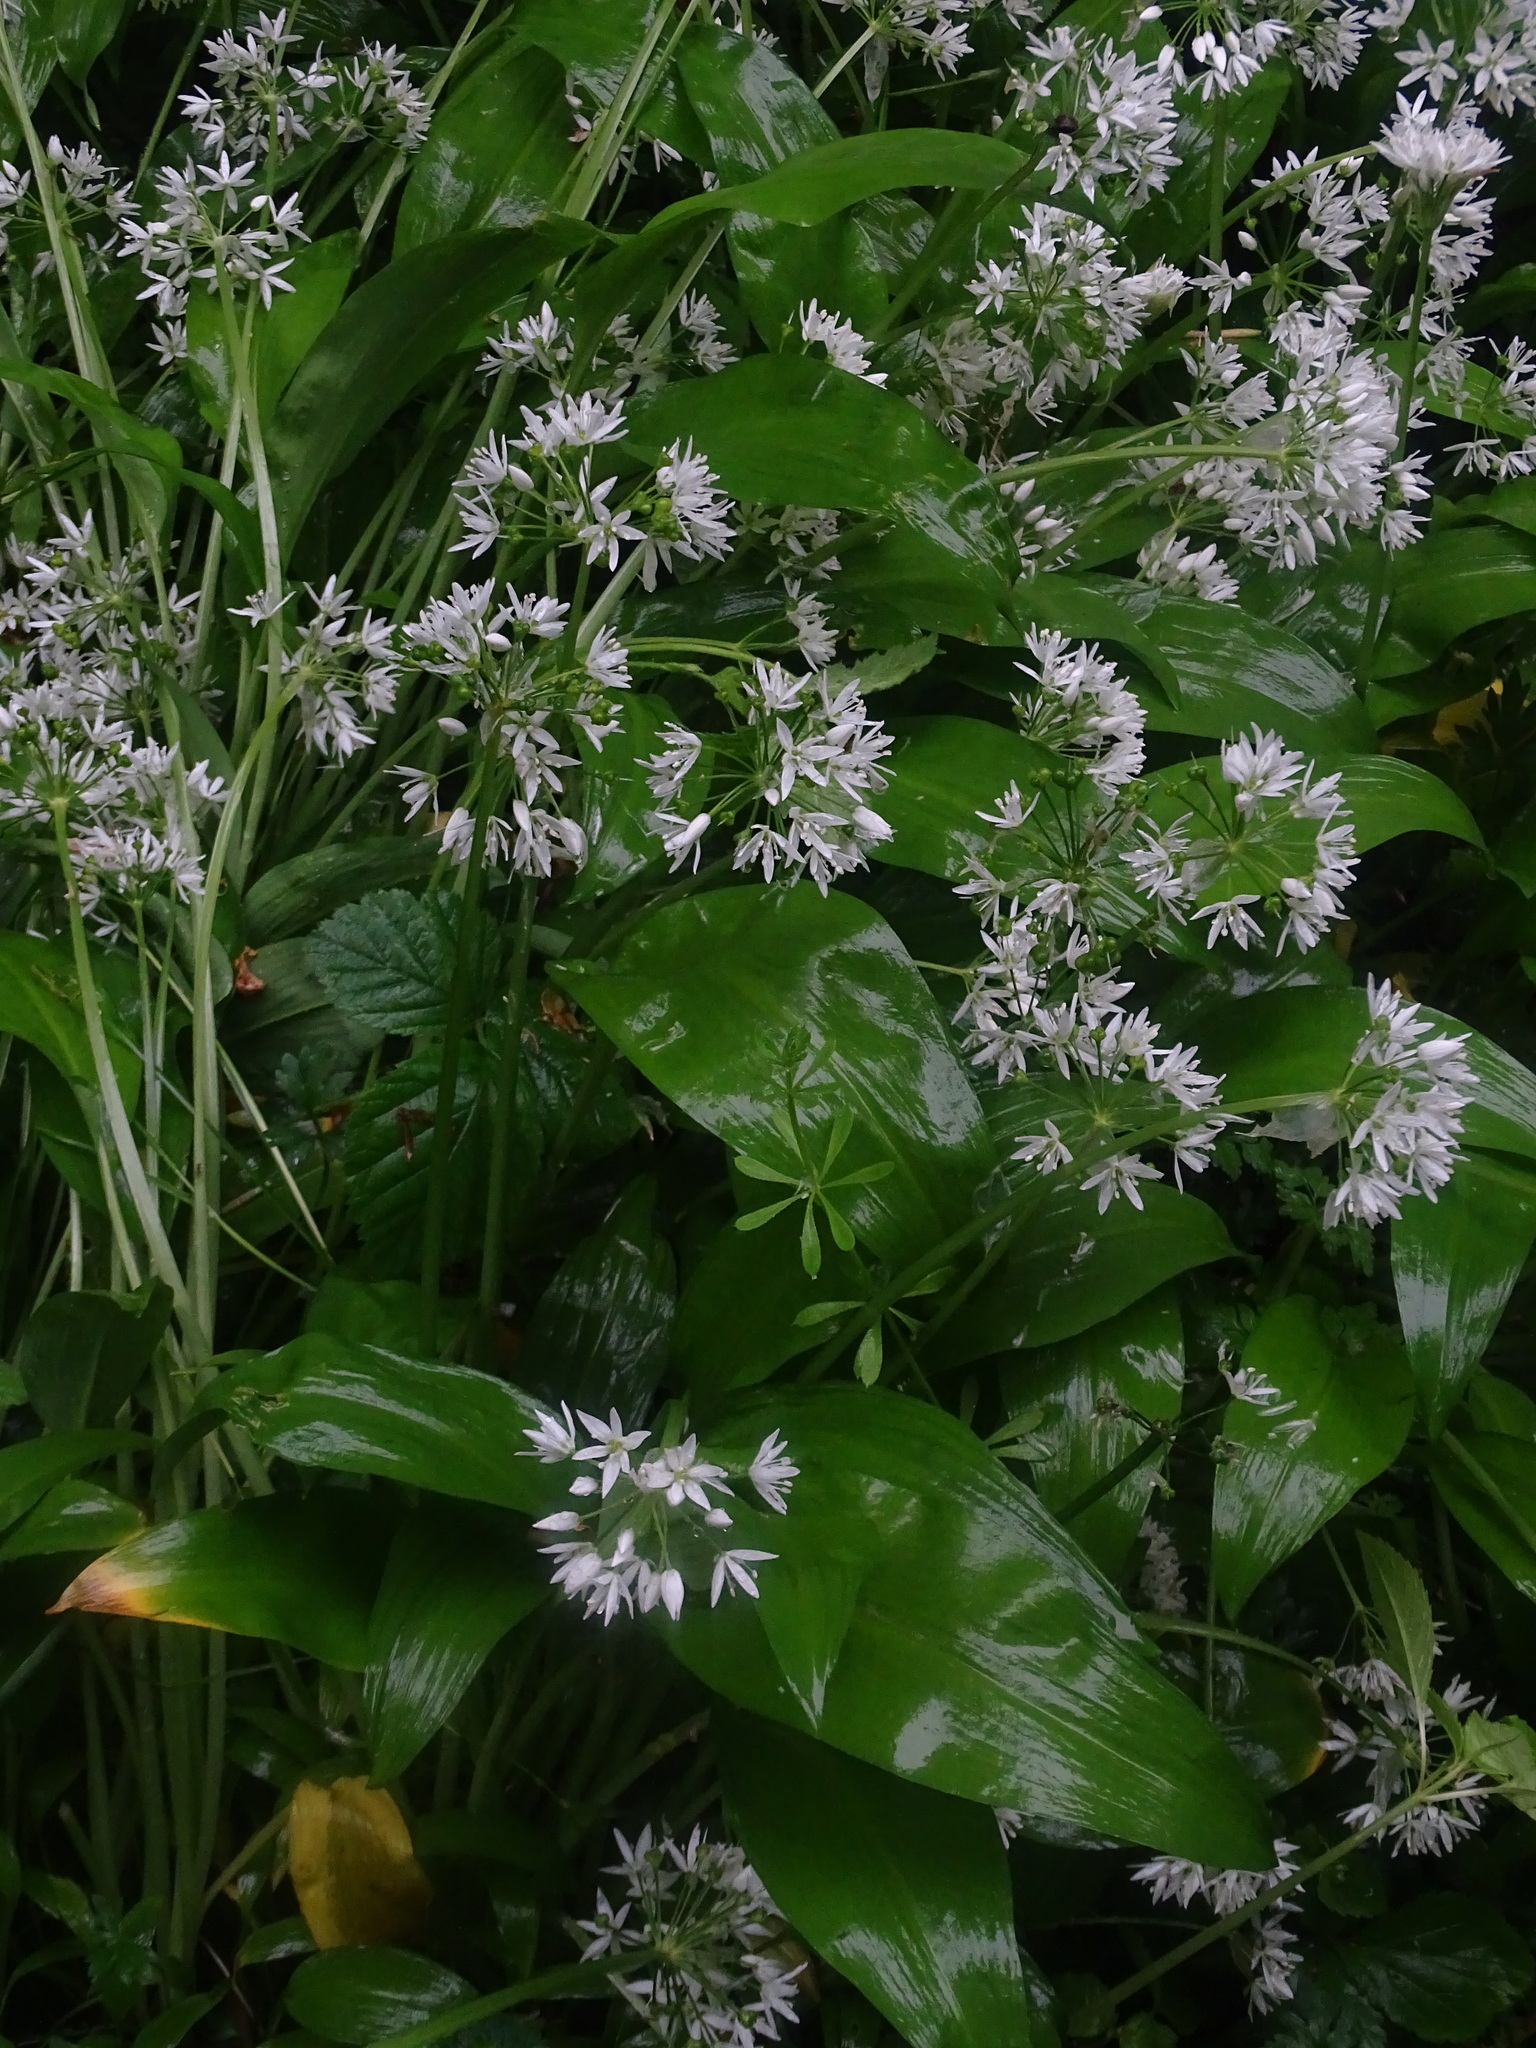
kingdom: Plantae
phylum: Tracheophyta
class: Liliopsida
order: Asparagales
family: Amaryllidaceae
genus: Allium
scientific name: Allium ursinum
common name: Ramsons
